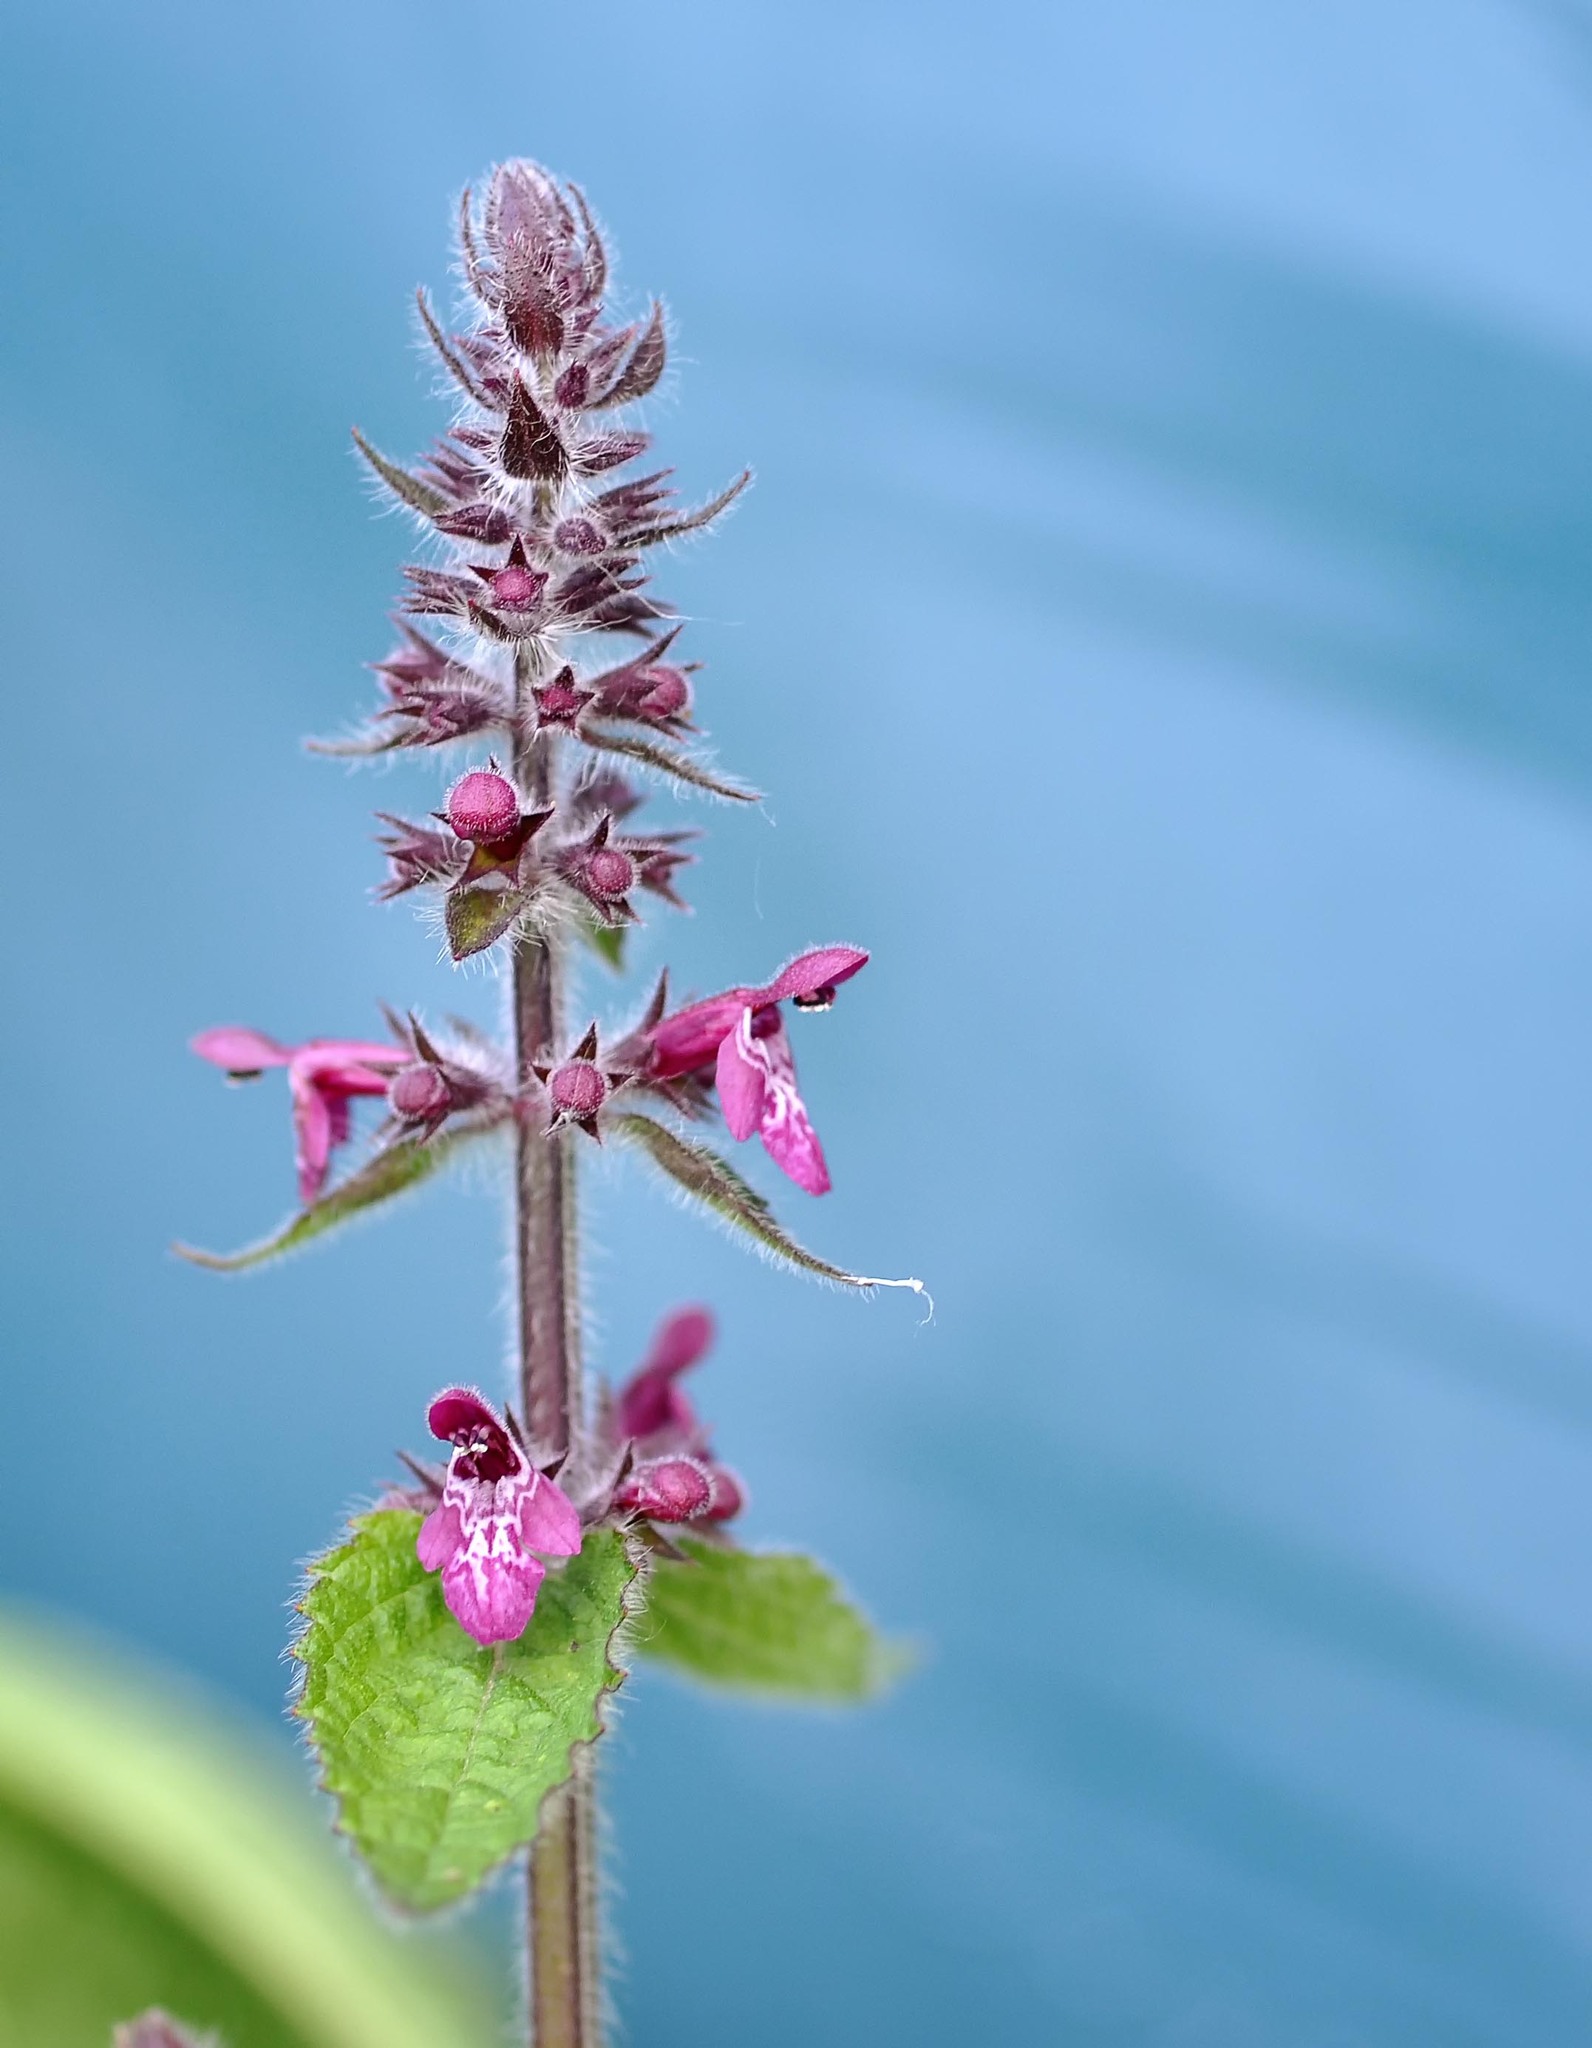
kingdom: Plantae
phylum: Tracheophyta
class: Magnoliopsida
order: Lamiales
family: Lamiaceae
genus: Stachys
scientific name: Stachys sylvatica
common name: Hedge woundwort
